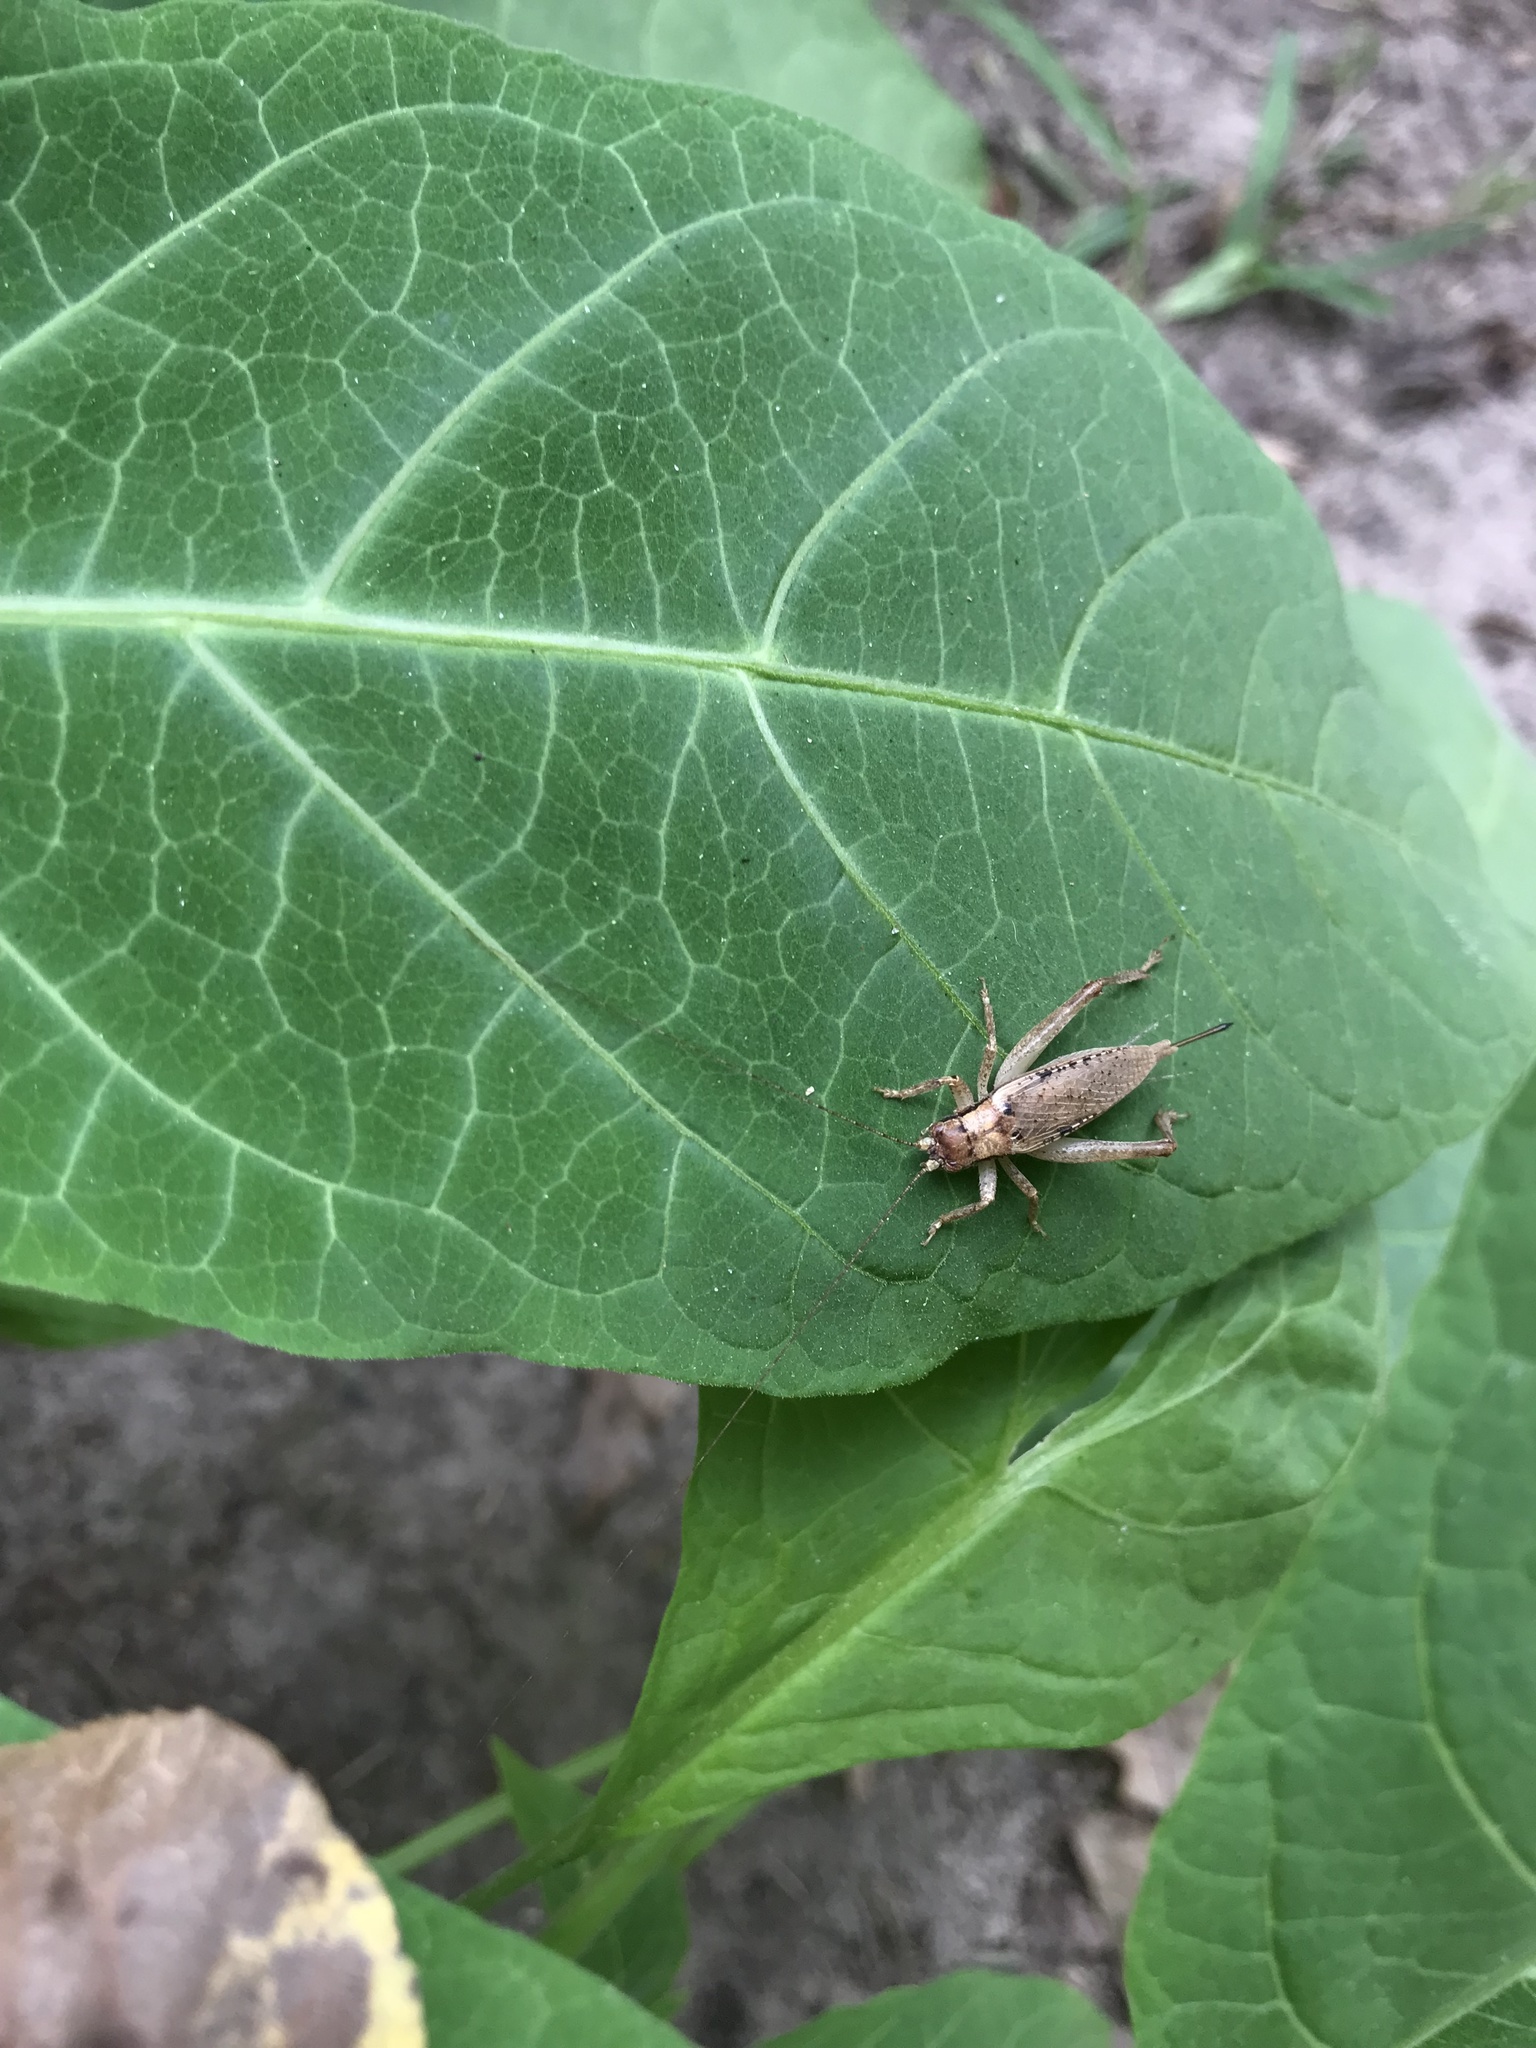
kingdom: Animalia
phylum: Arthropoda
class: Insecta
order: Orthoptera
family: Gryllidae
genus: Hapithus
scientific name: Hapithus saltator
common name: Jumping bush cricket
